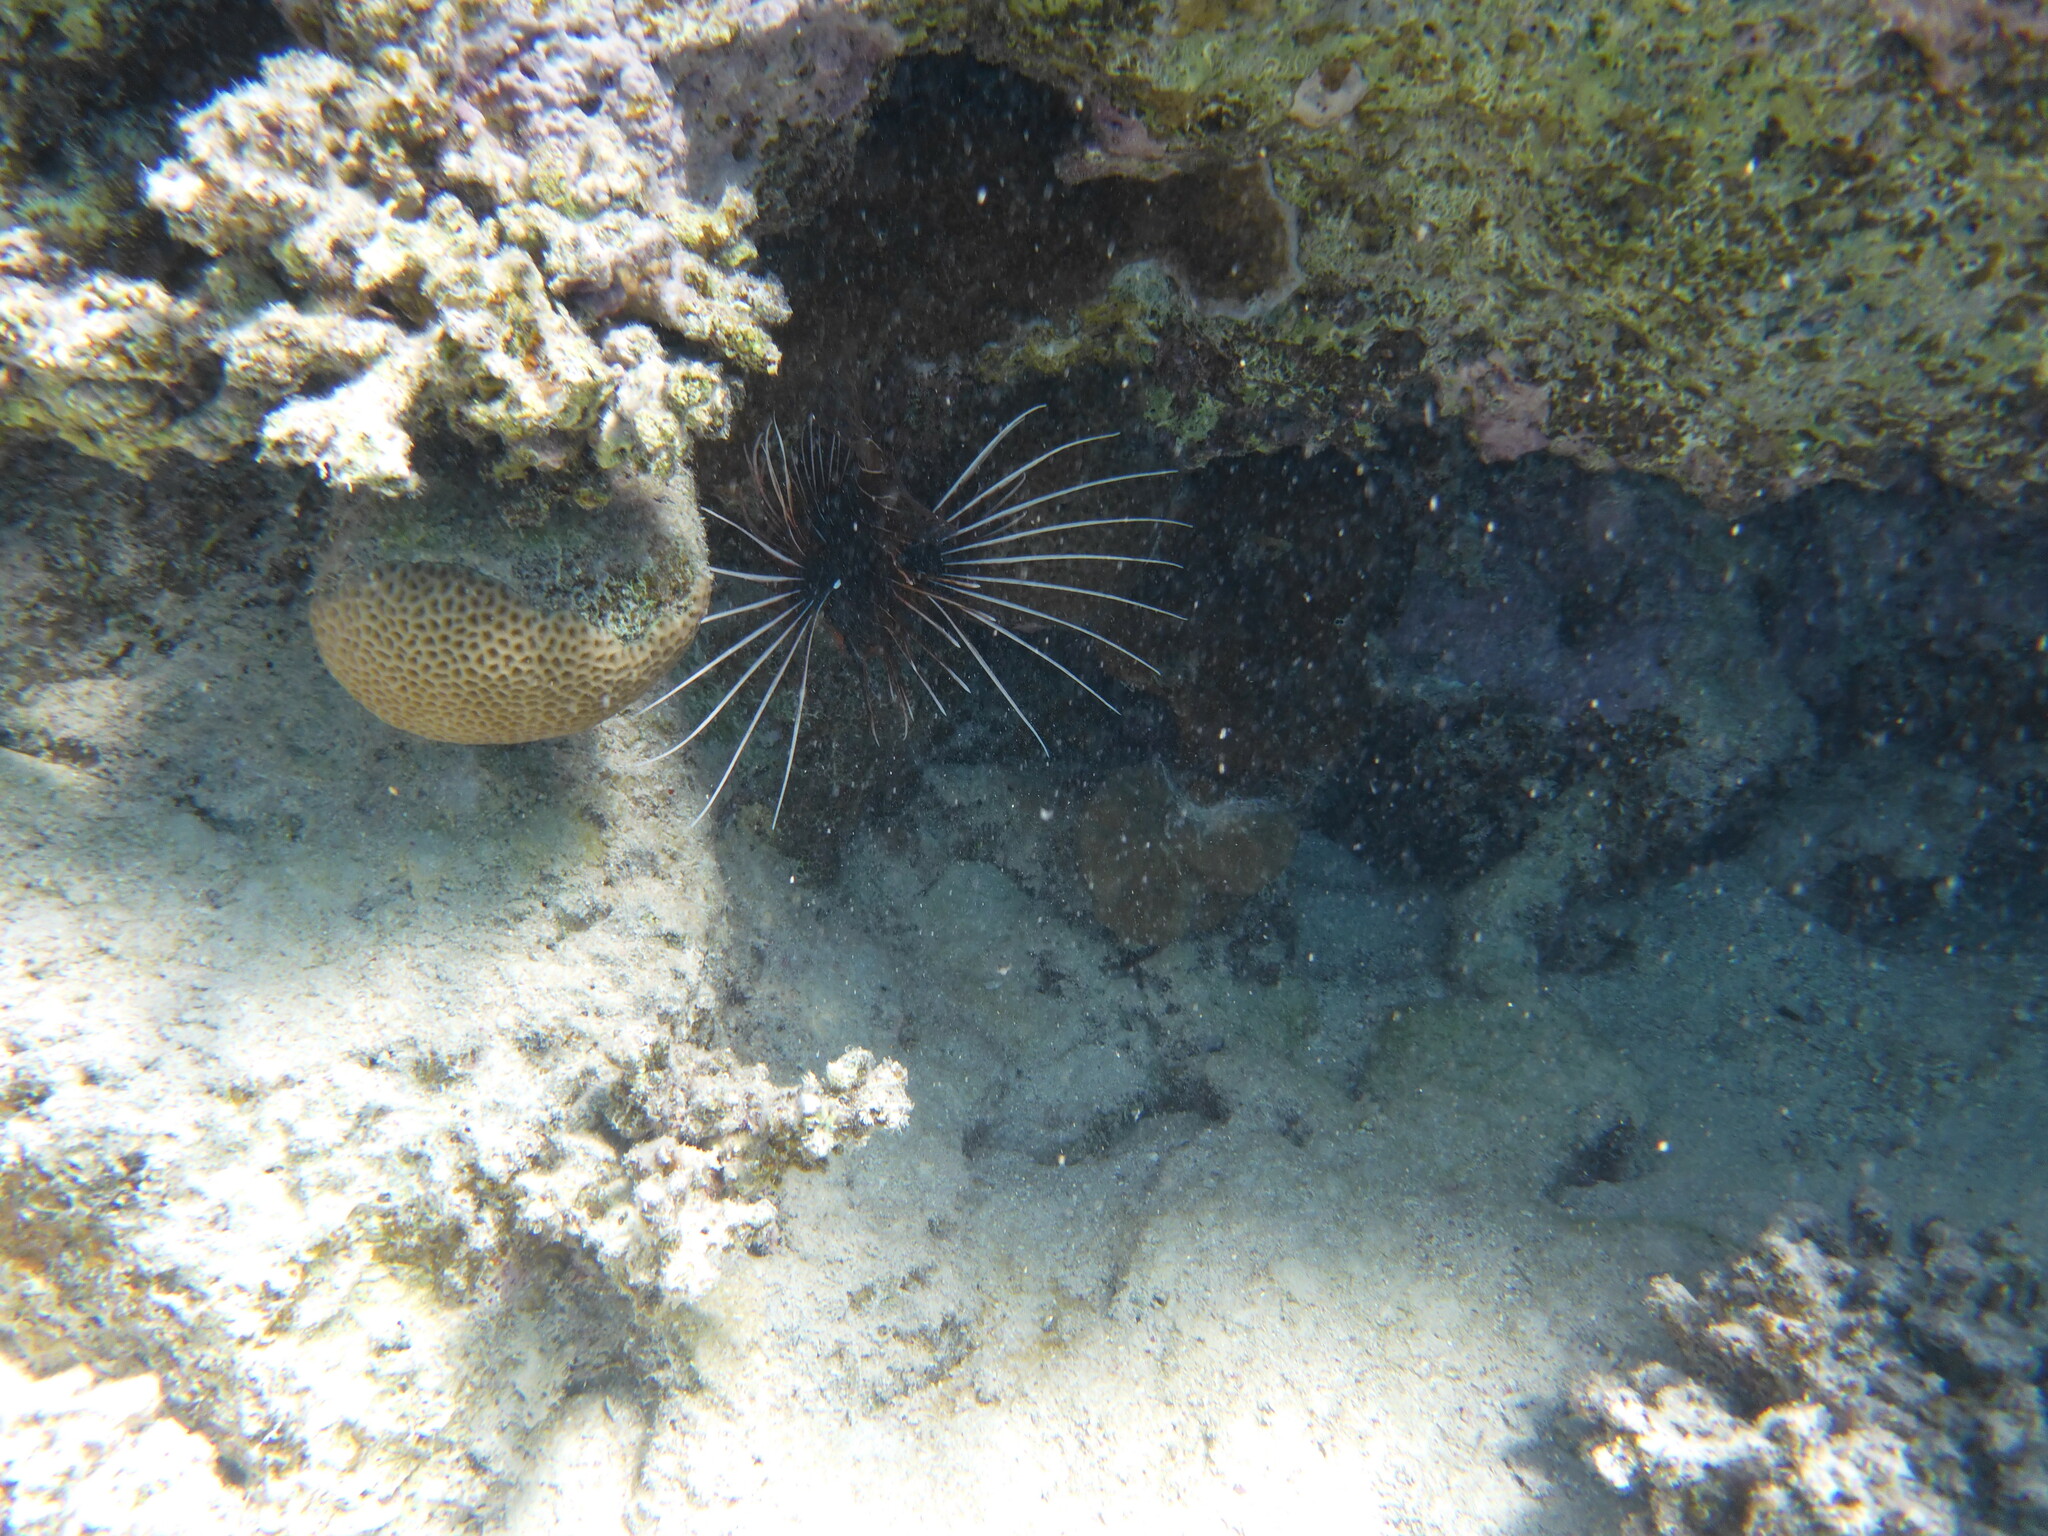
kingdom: Animalia
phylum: Chordata
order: Scorpaeniformes
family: Scorpaenidae
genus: Pterois
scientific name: Pterois cincta
